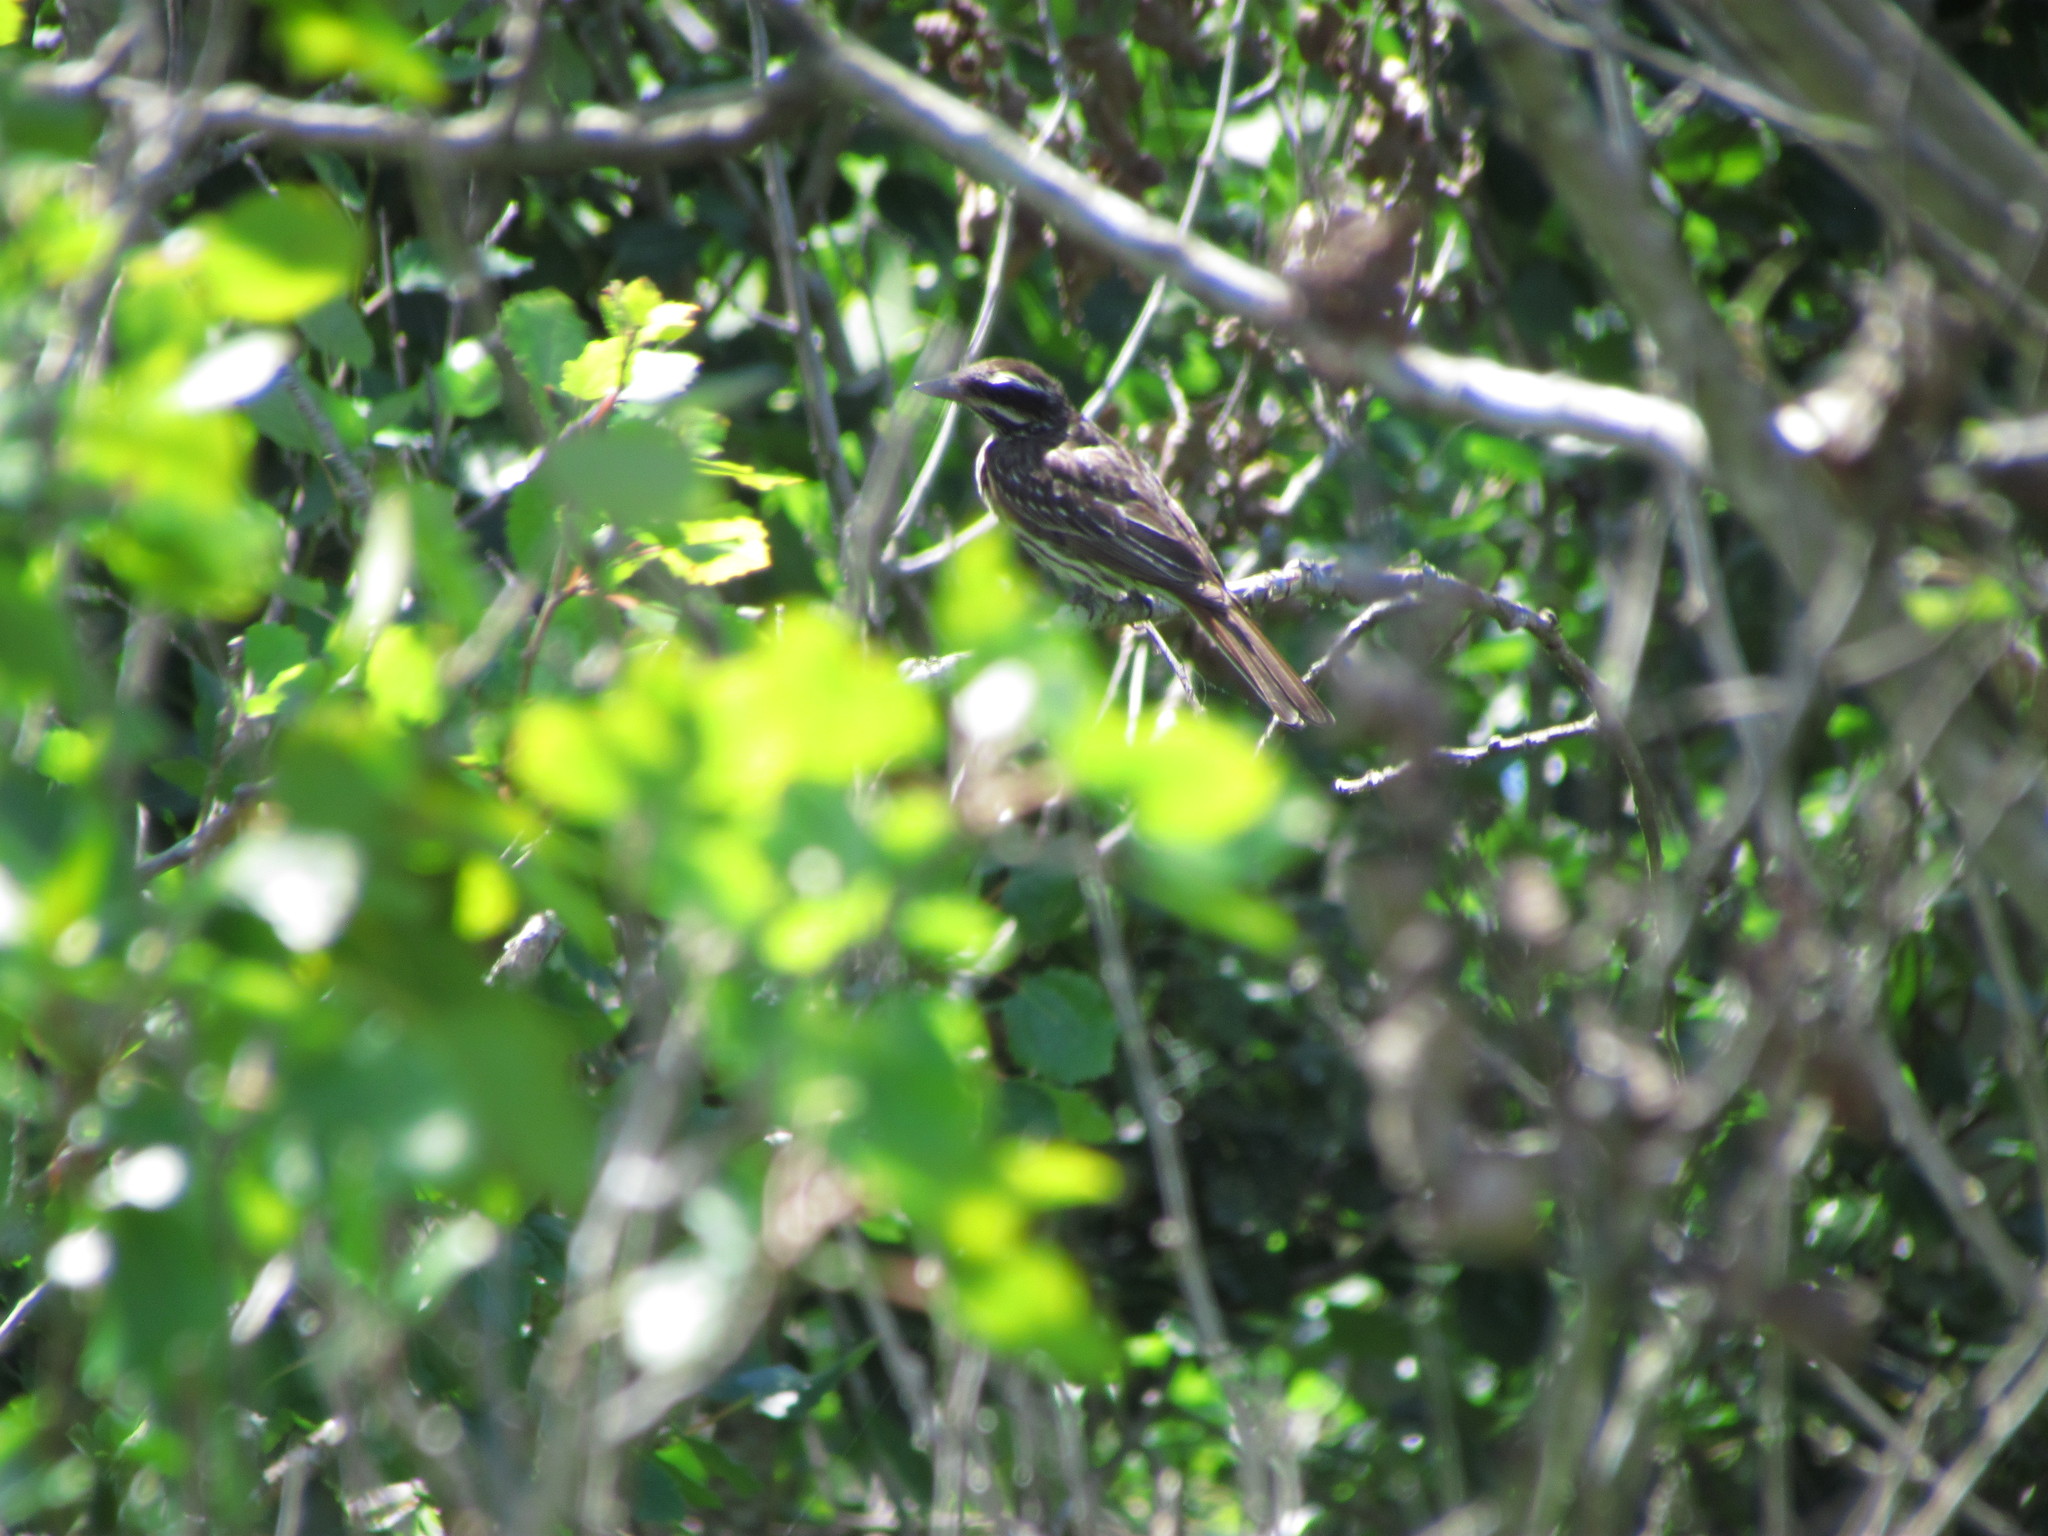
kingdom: Animalia
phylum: Chordata
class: Aves
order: Passeriformes
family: Tyrannidae
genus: Myiodynastes
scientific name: Myiodynastes maculatus
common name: Streaked flycatcher
